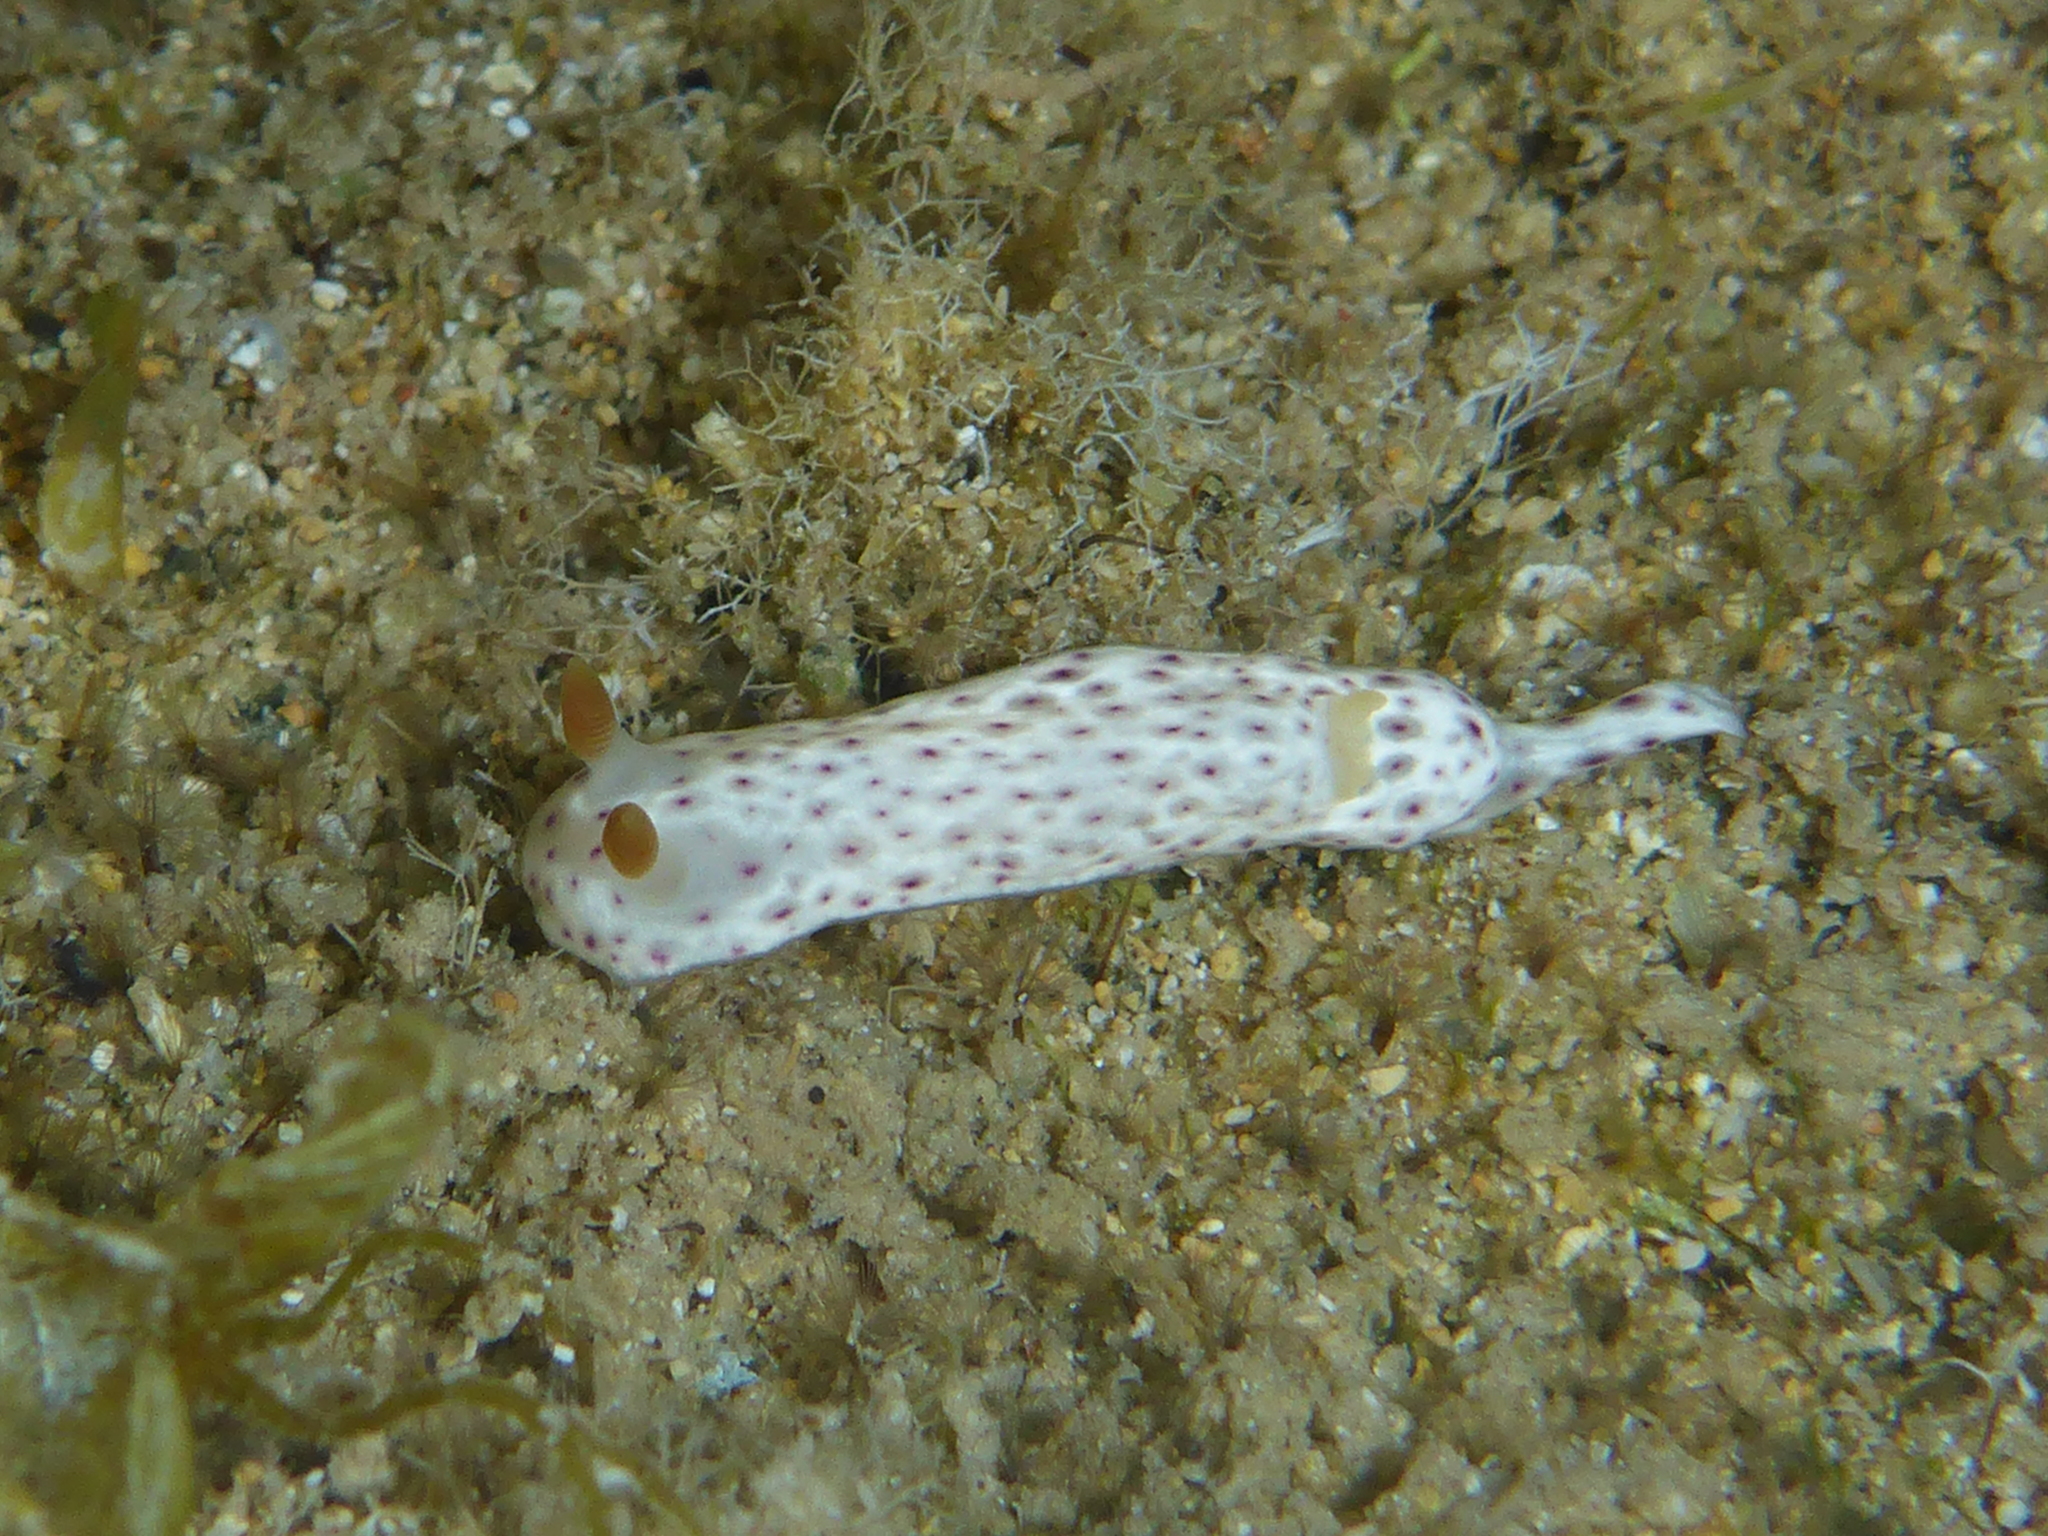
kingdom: Animalia
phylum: Mollusca
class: Gastropoda
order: Nudibranchia
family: Chromodorididae
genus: Chromodoris
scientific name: Chromodoris aspersa
